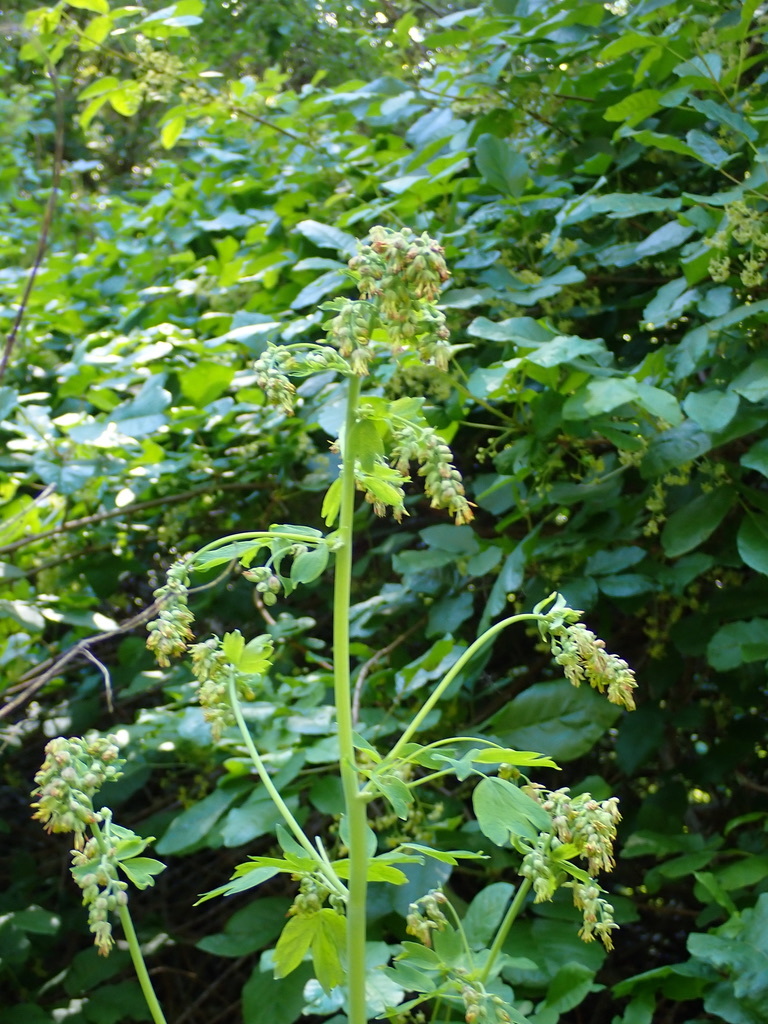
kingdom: Plantae
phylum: Tracheophyta
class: Magnoliopsida
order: Ranunculales
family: Ranunculaceae
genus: Thalictrum
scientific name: Thalictrum fendleri
